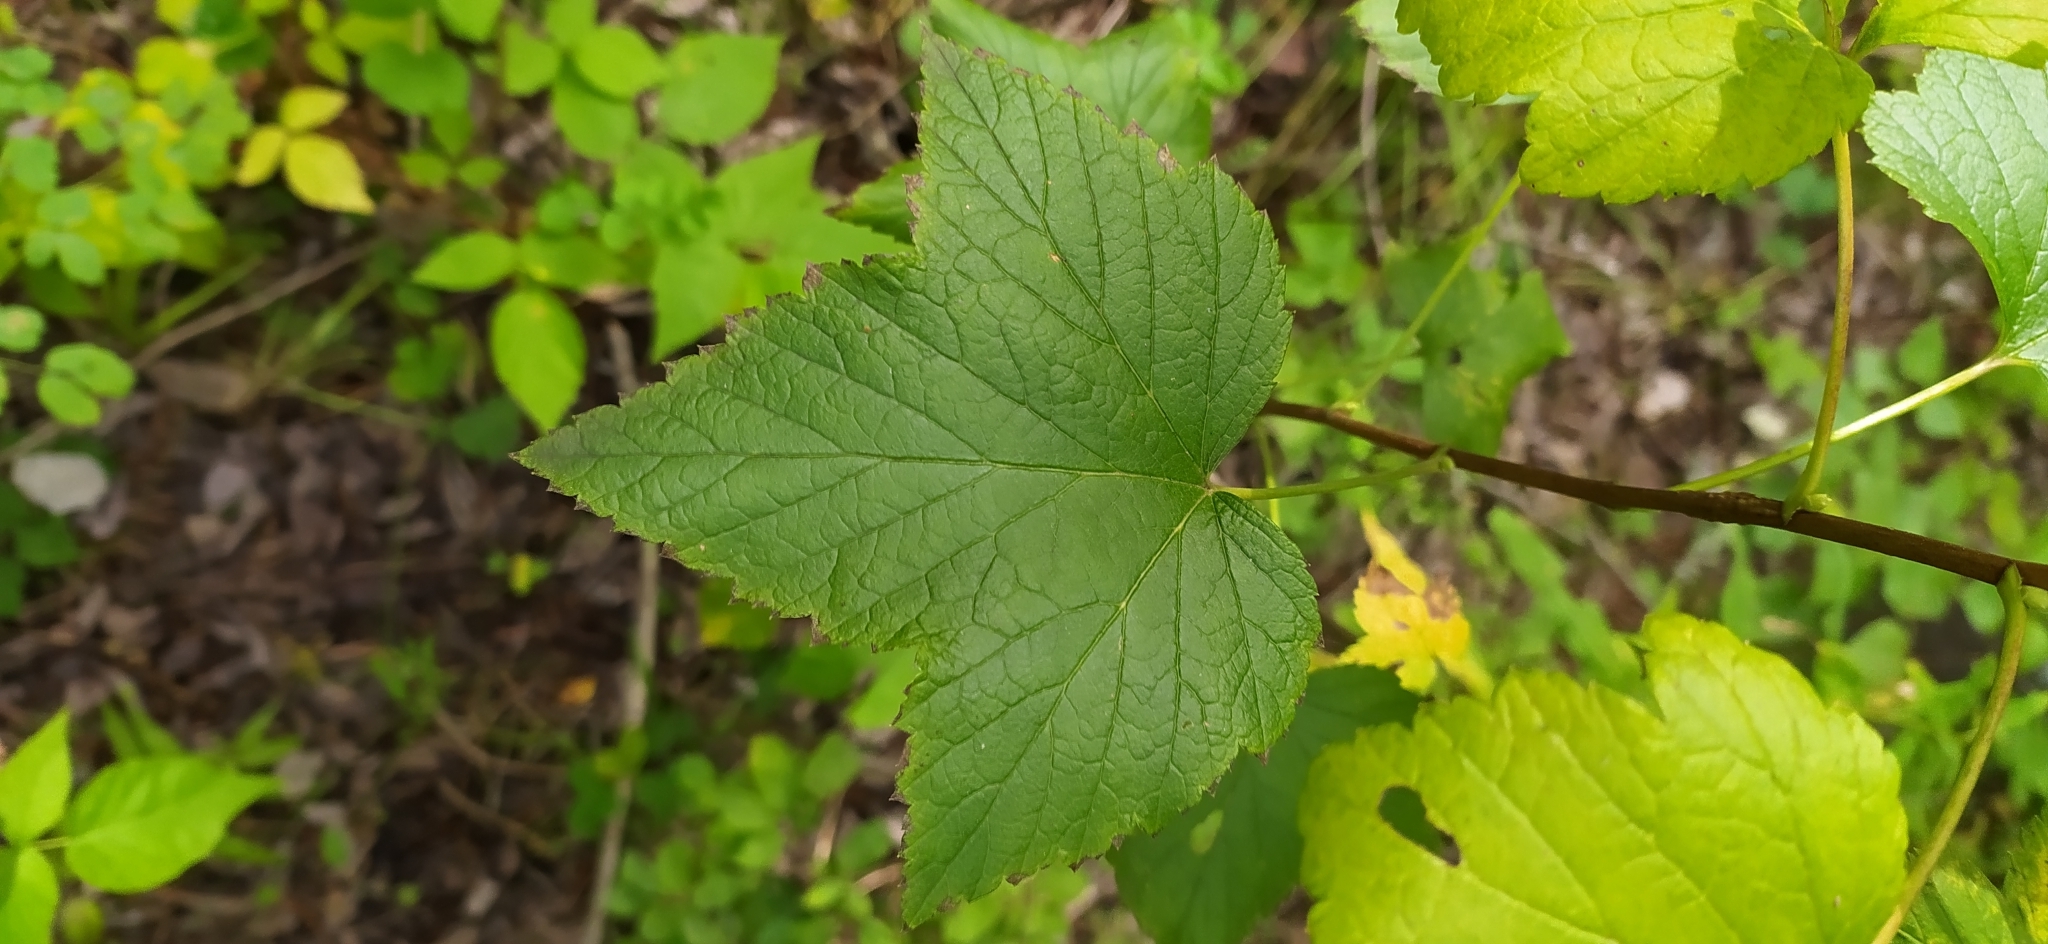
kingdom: Plantae
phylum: Tracheophyta
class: Magnoliopsida
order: Saxifragales
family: Grossulariaceae
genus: Ribes
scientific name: Ribes nigrum
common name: Black currant
